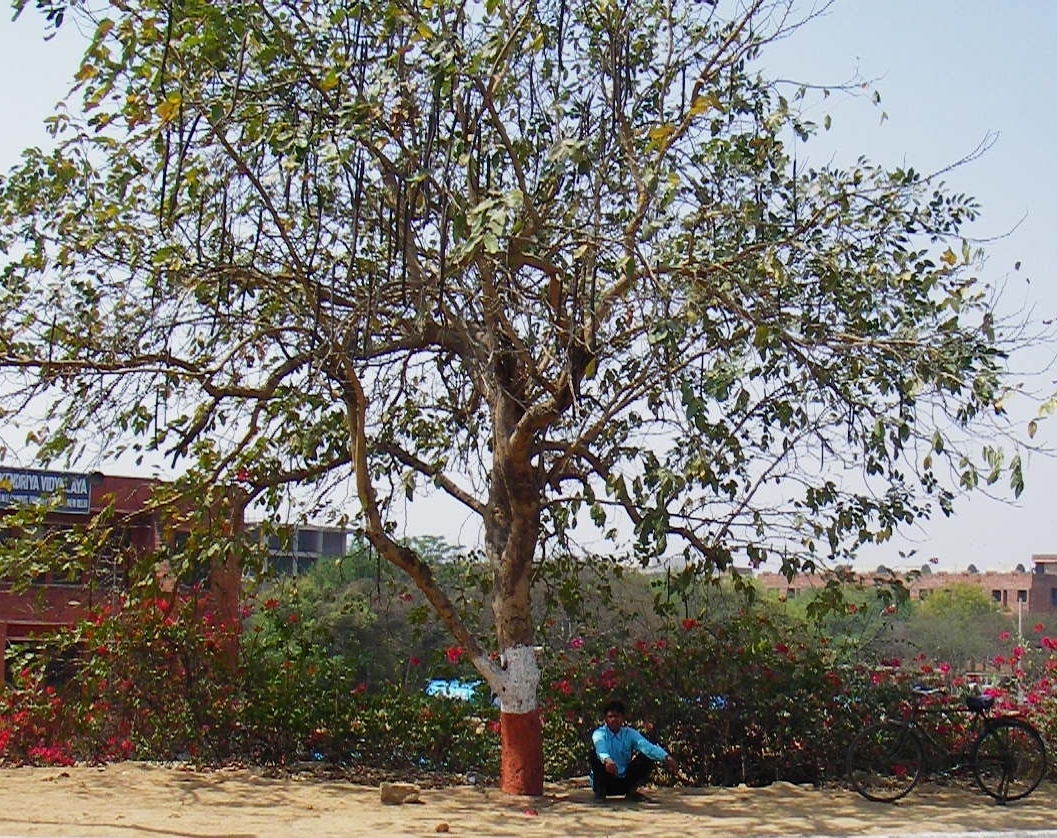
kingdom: Plantae
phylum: Tracheophyta
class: Magnoliopsida
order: Fabales
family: Fabaceae
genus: Cassia
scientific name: Cassia fistula
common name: Golden shower
